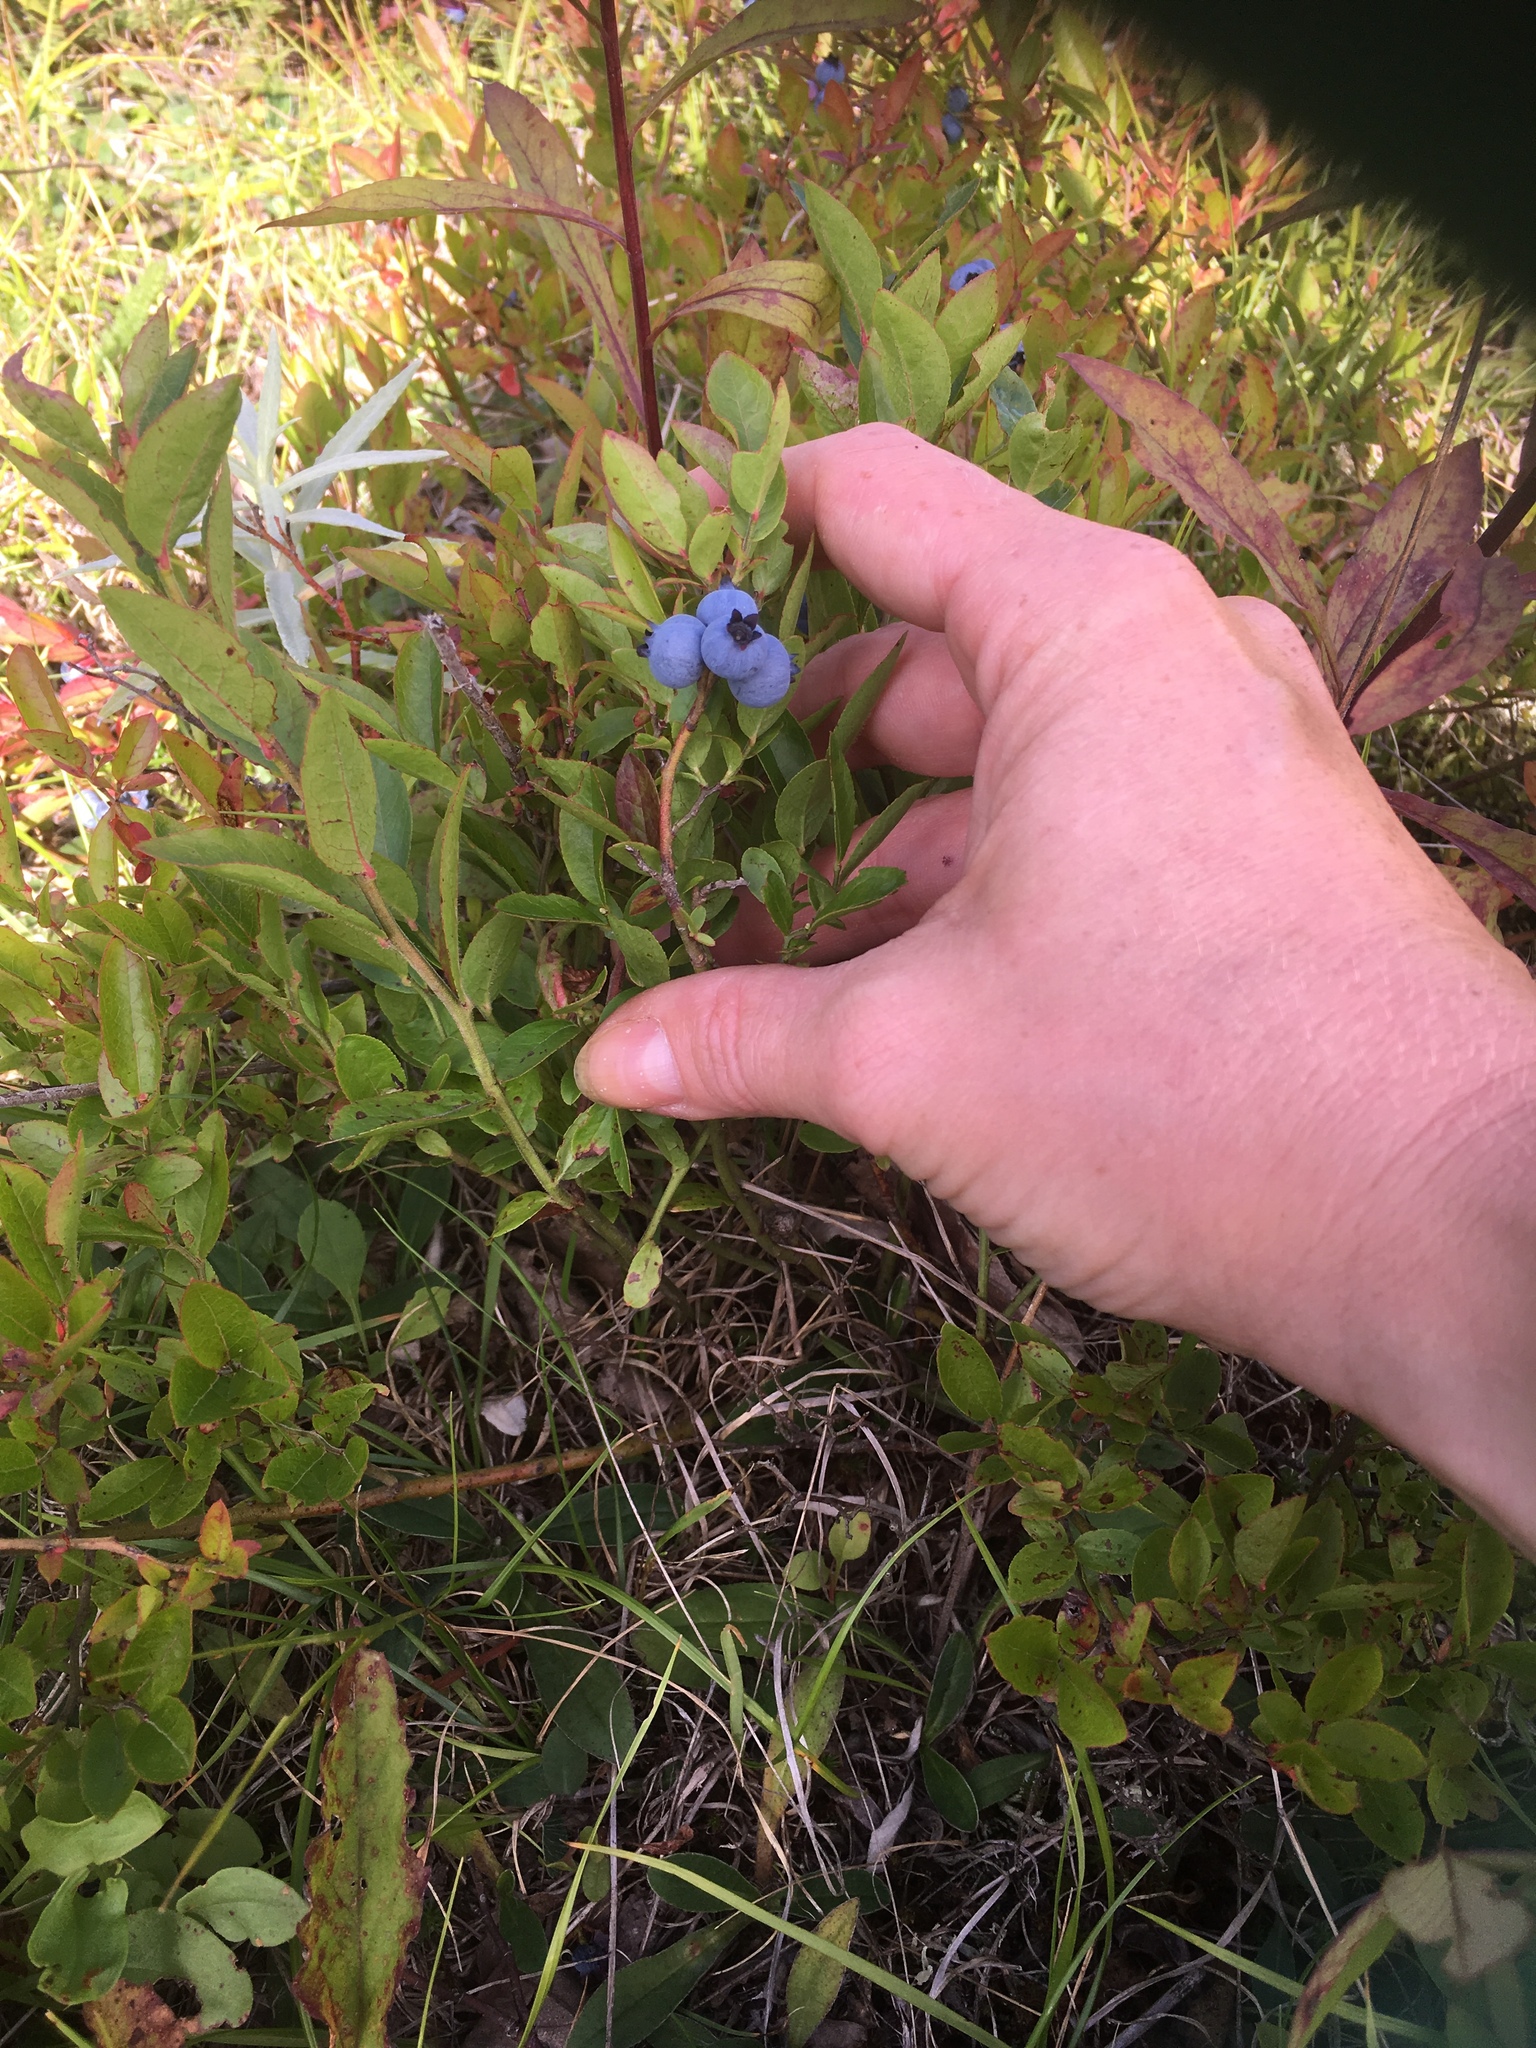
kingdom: Plantae
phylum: Tracheophyta
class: Magnoliopsida
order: Ericales
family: Ericaceae
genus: Vaccinium
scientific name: Vaccinium angustifolium
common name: Early lowbush blueberry
